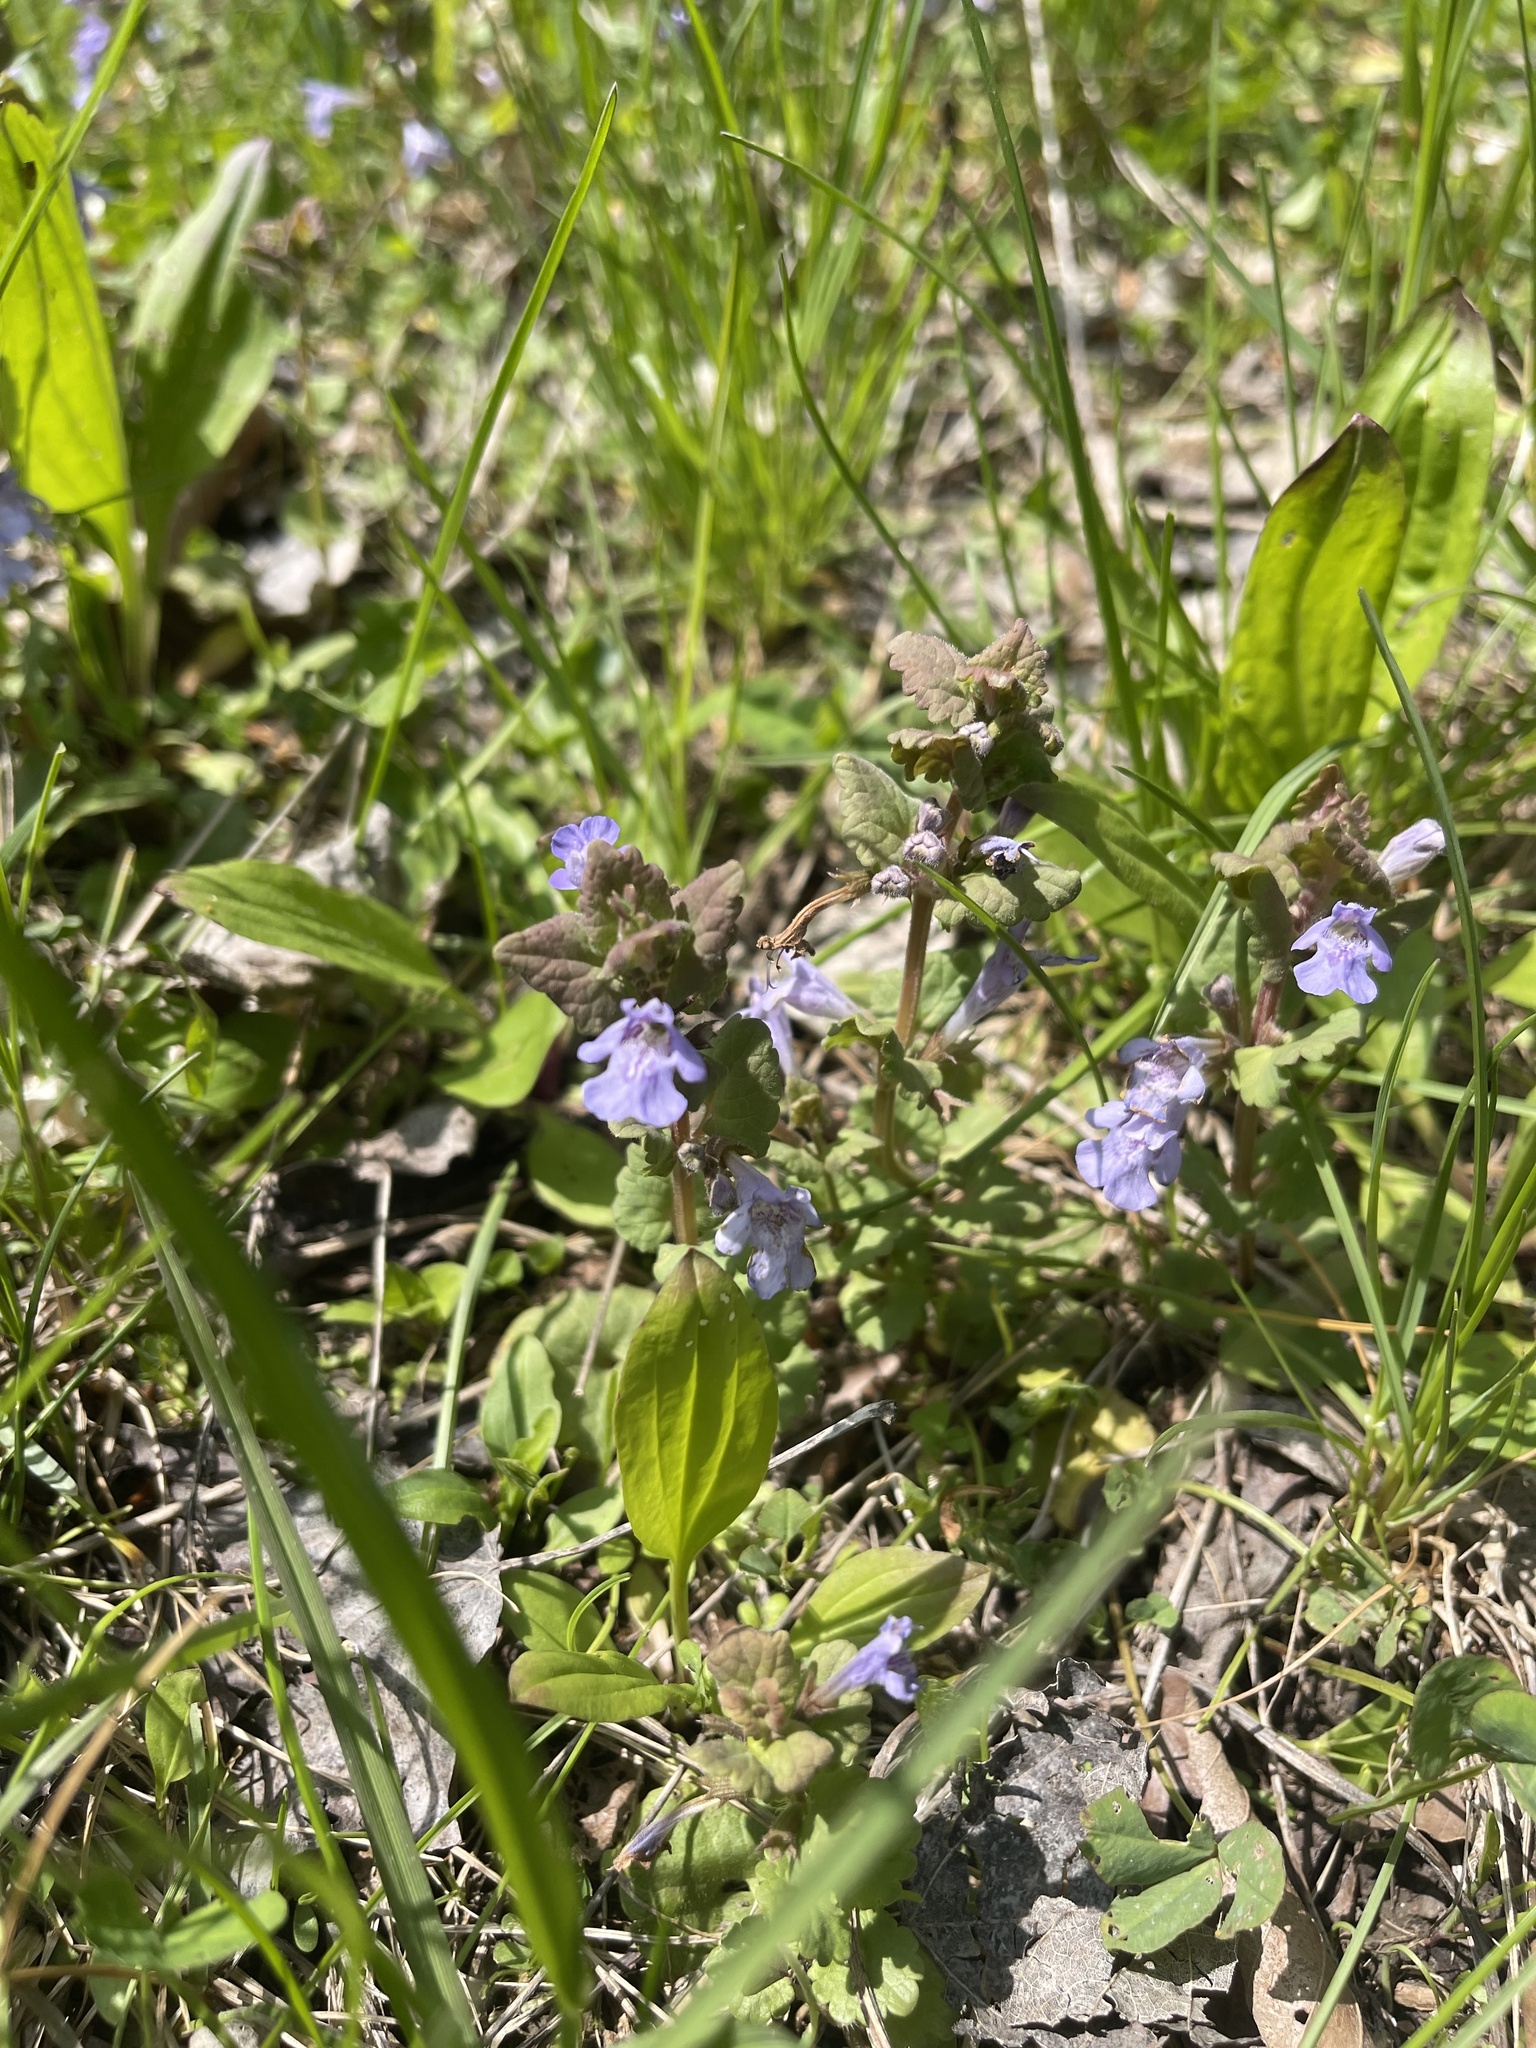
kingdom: Plantae
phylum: Tracheophyta
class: Magnoliopsida
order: Lamiales
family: Lamiaceae
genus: Glechoma
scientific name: Glechoma hederacea
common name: Ground ivy
